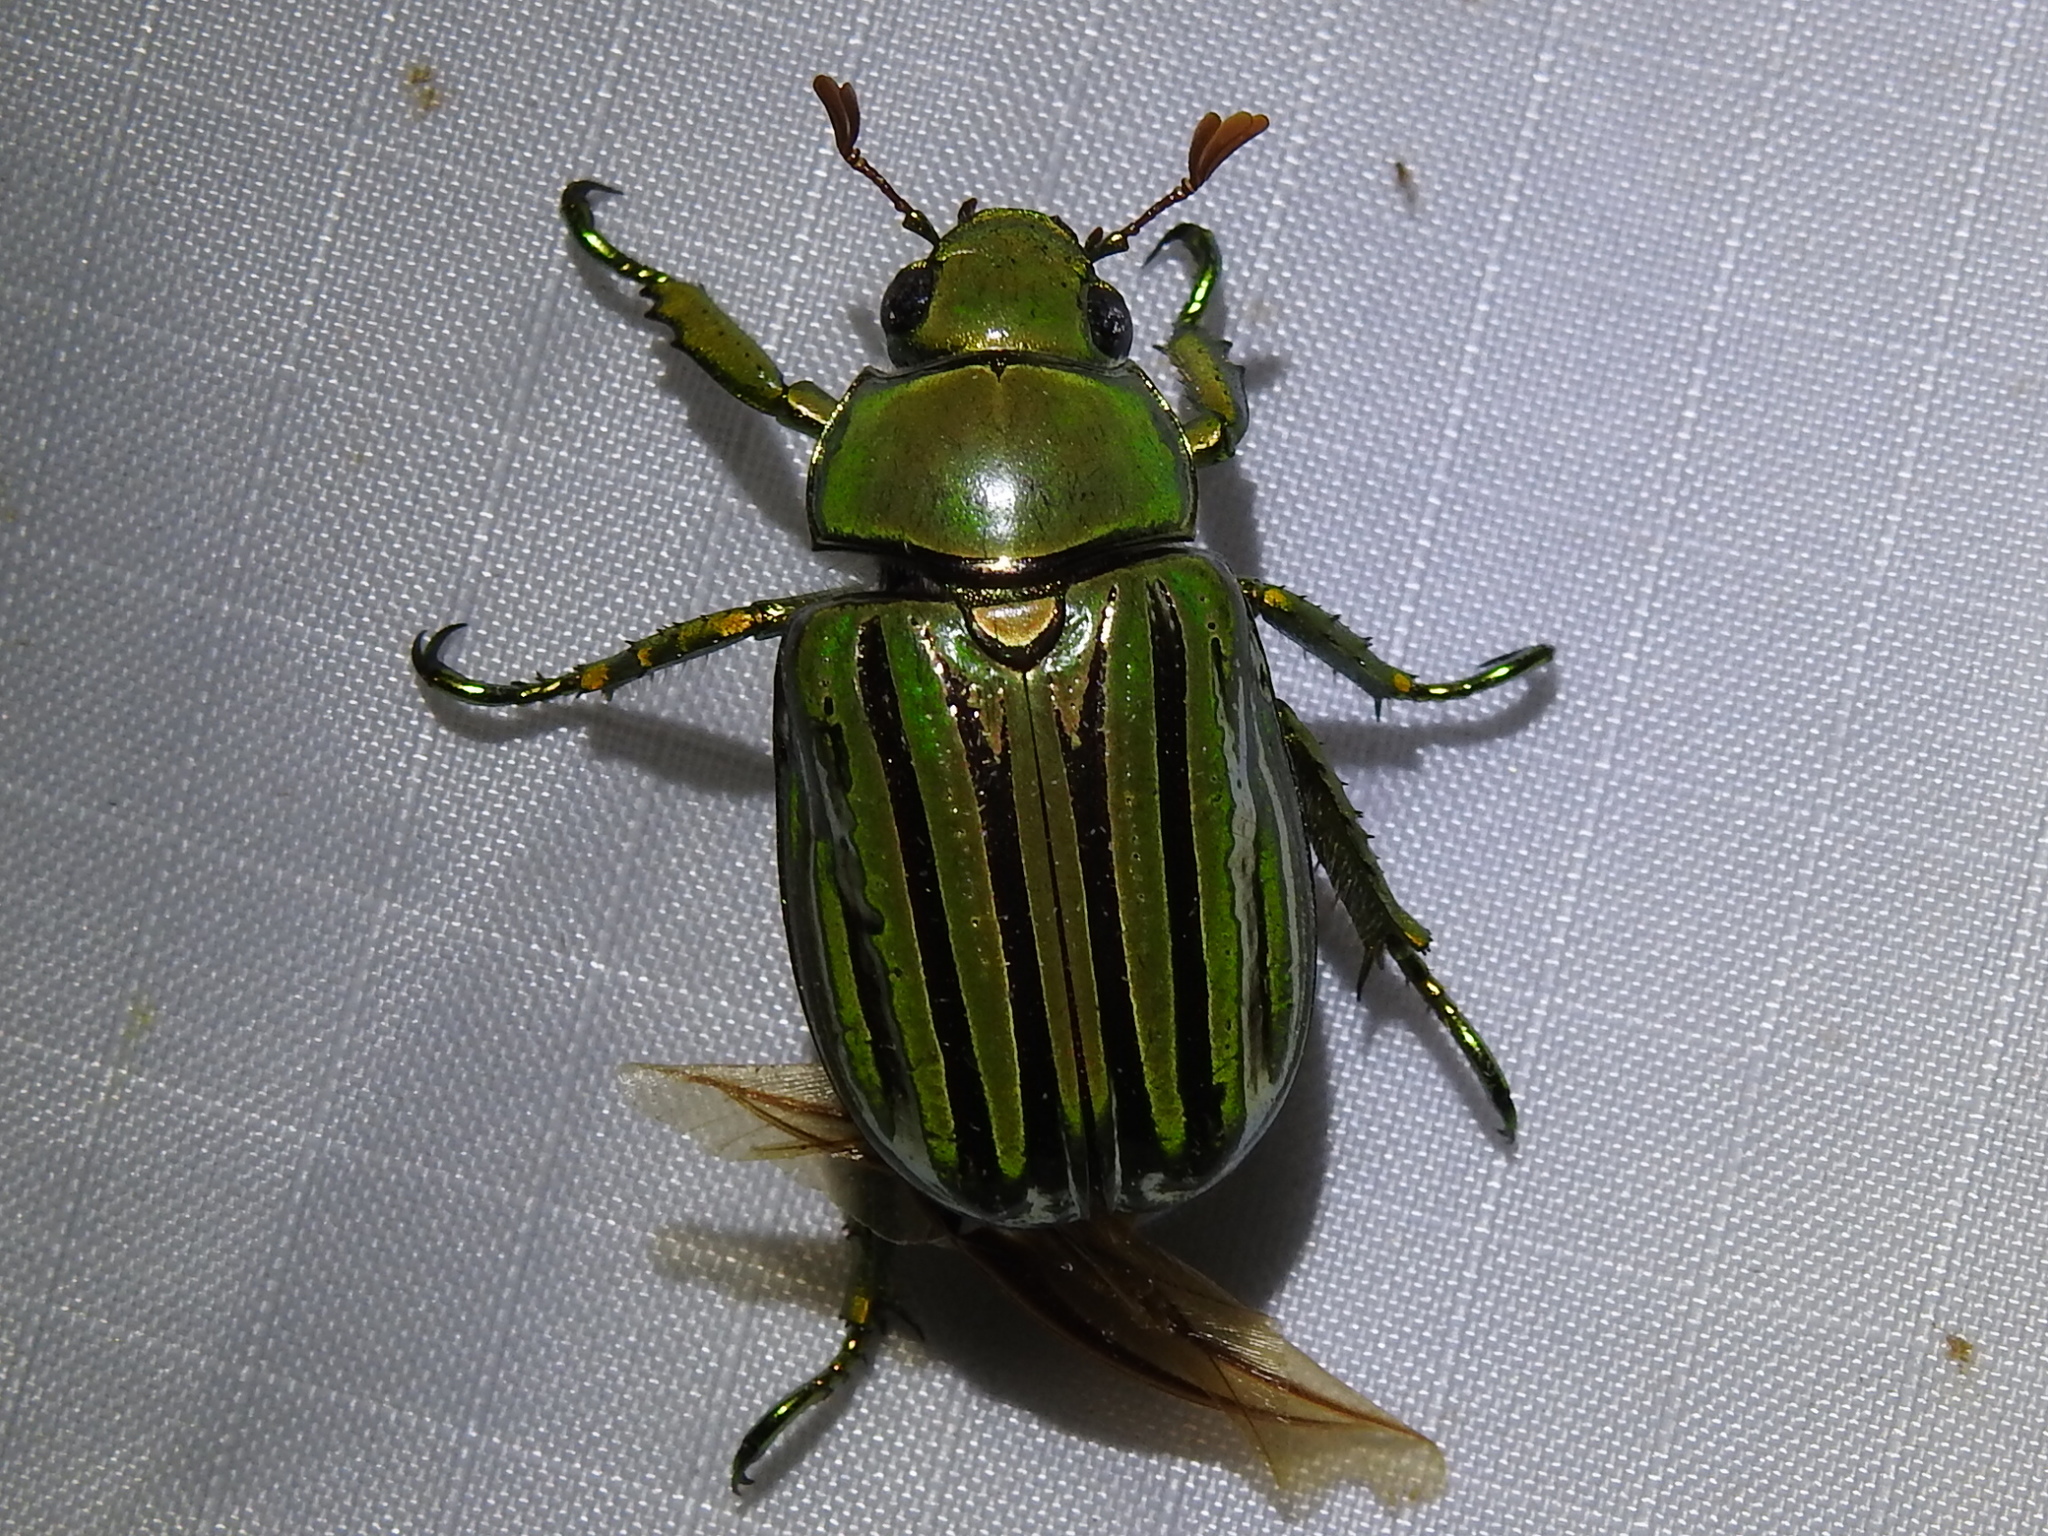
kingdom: Animalia
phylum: Arthropoda
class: Insecta
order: Coleoptera
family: Scarabaeidae
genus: Chrysina
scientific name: Chrysina gloriosa
